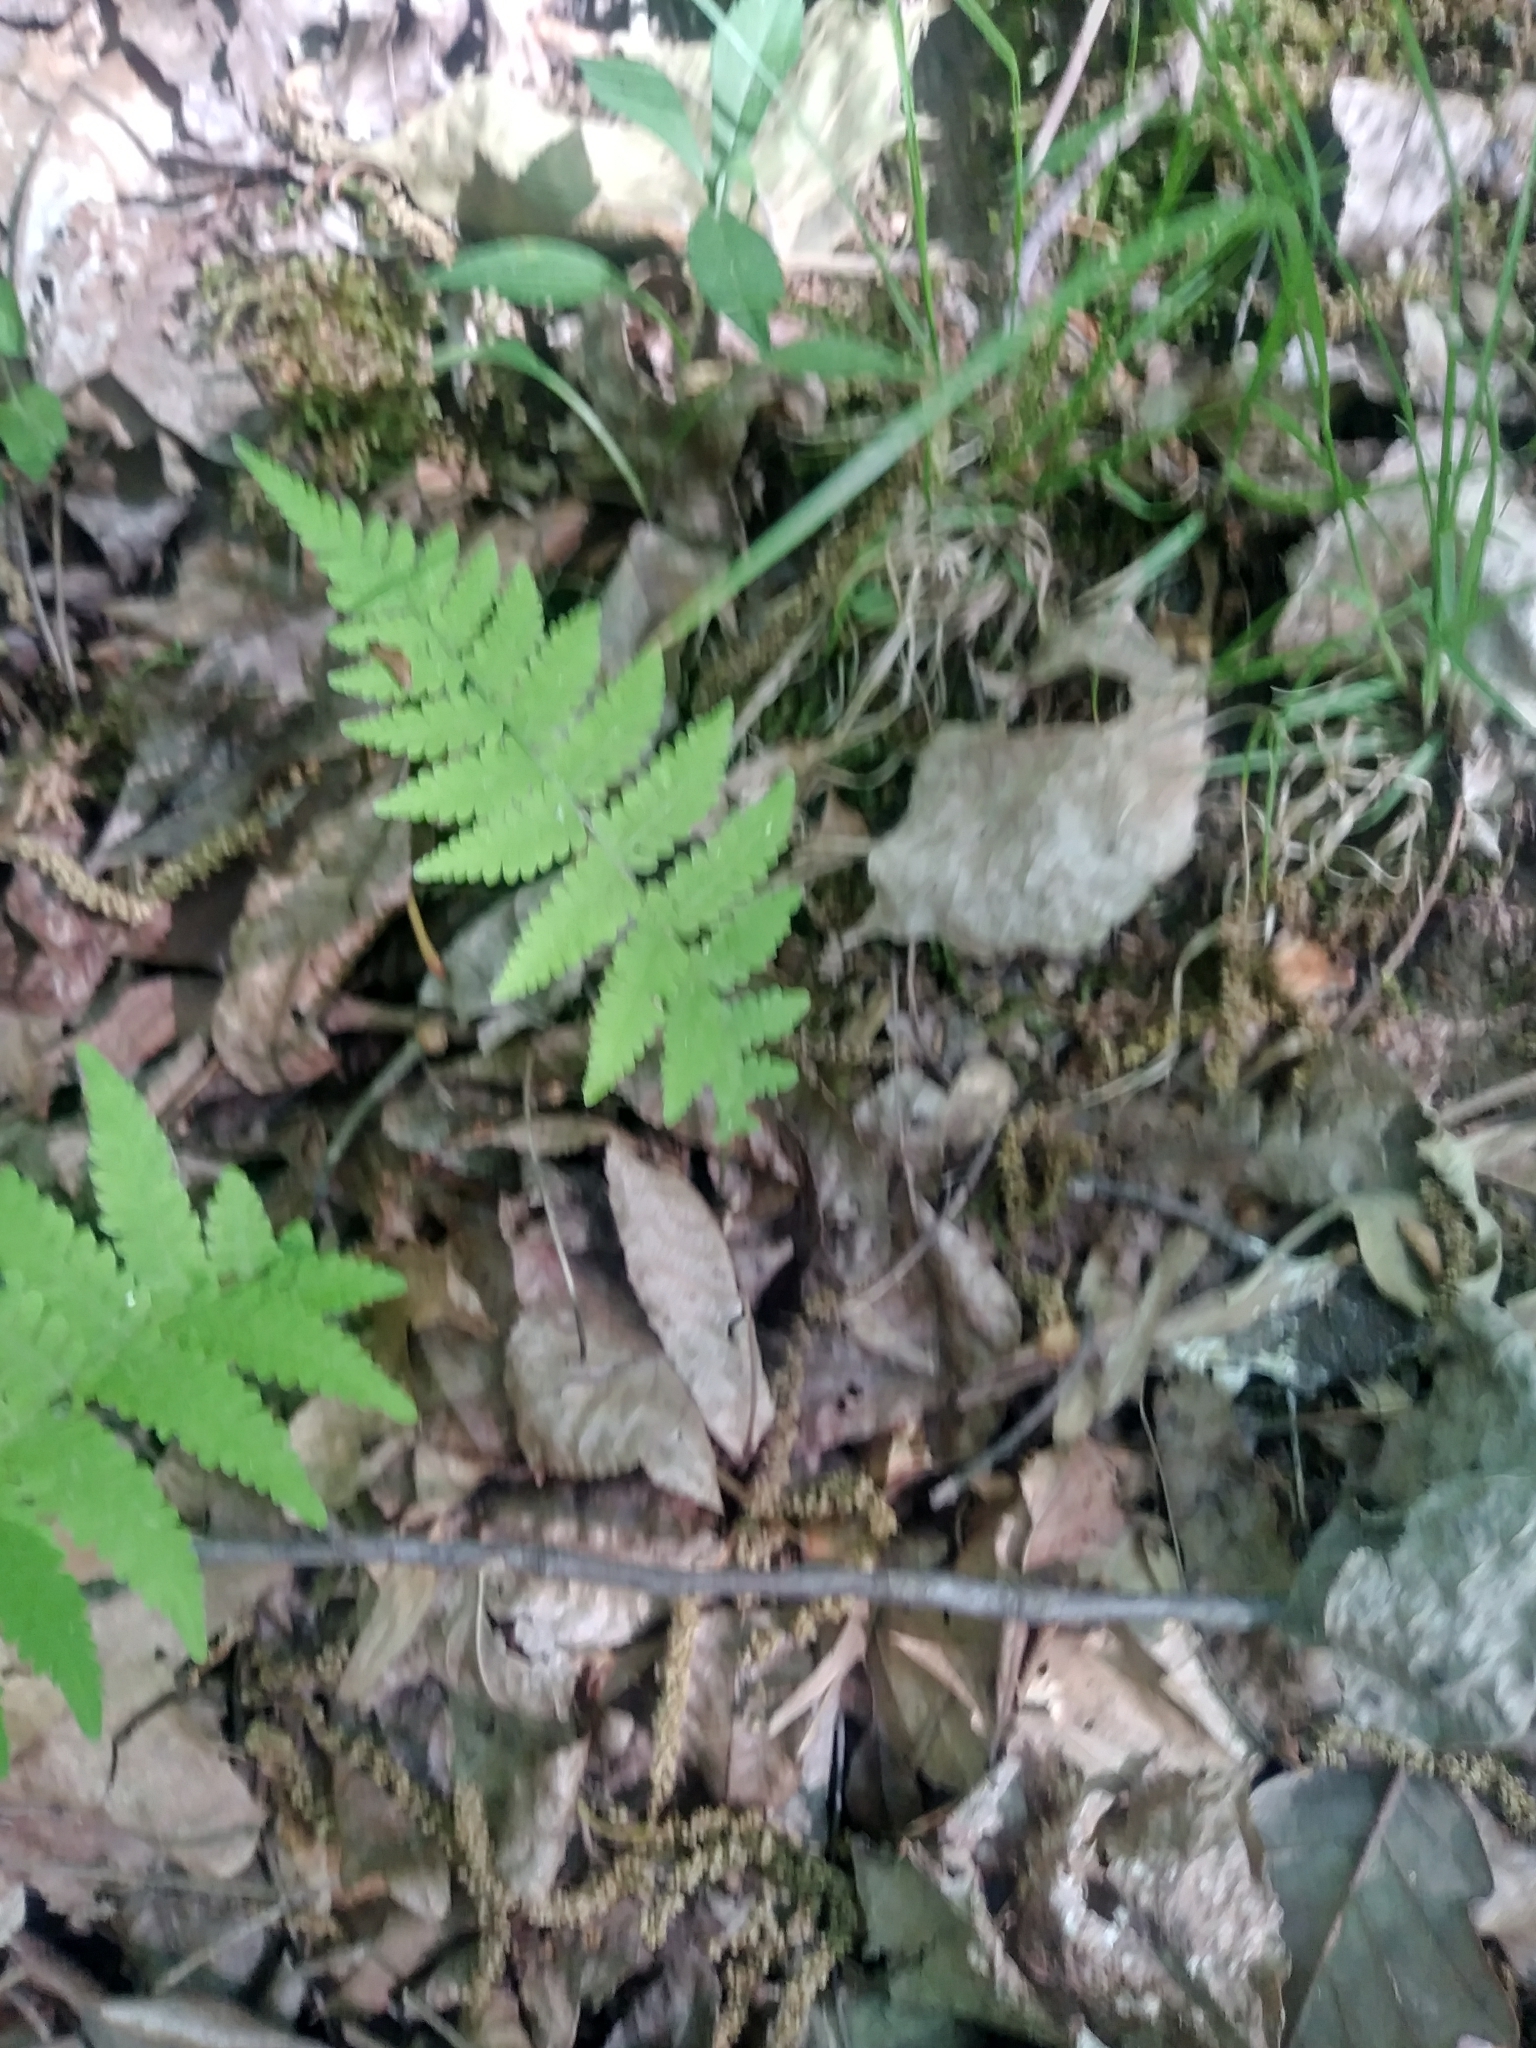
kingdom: Plantae
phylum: Tracheophyta
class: Polypodiopsida
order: Polypodiales
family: Thelypteridaceae
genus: Amauropelta
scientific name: Amauropelta noveboracensis
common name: New york fern
